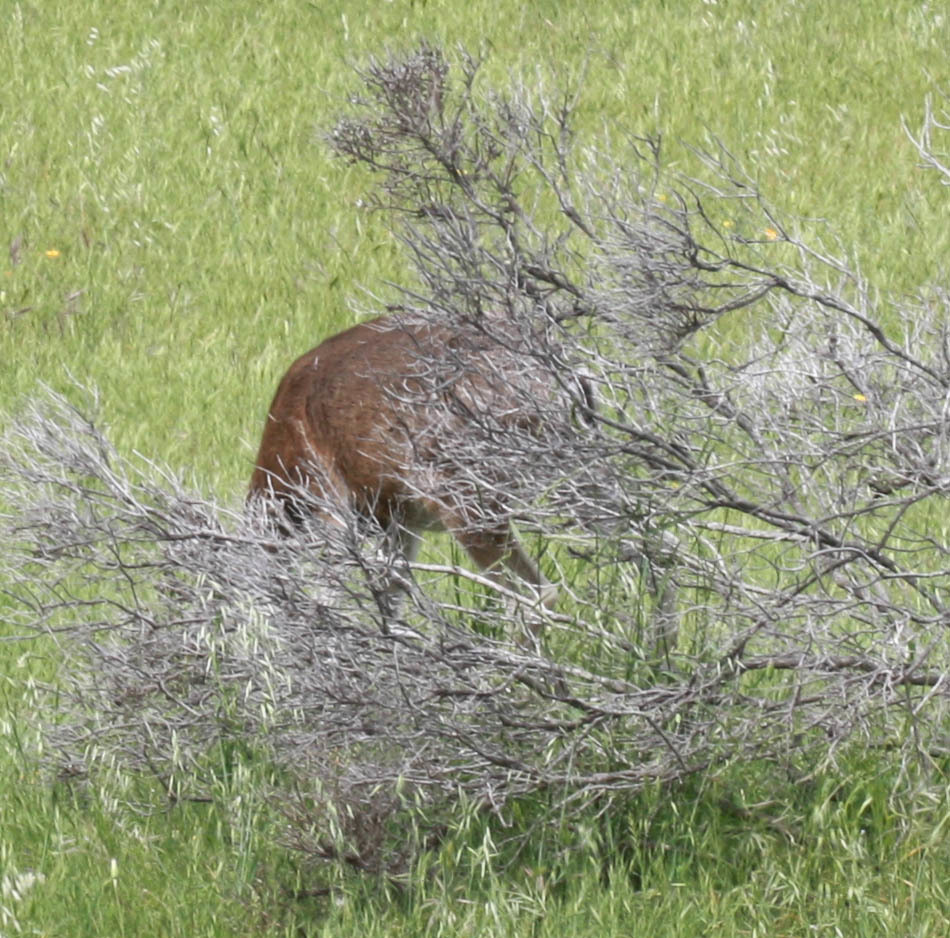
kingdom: Animalia
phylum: Chordata
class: Mammalia
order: Artiodactyla
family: Cervidae
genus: Odocoileus
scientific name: Odocoileus hemionus
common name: Mule deer
